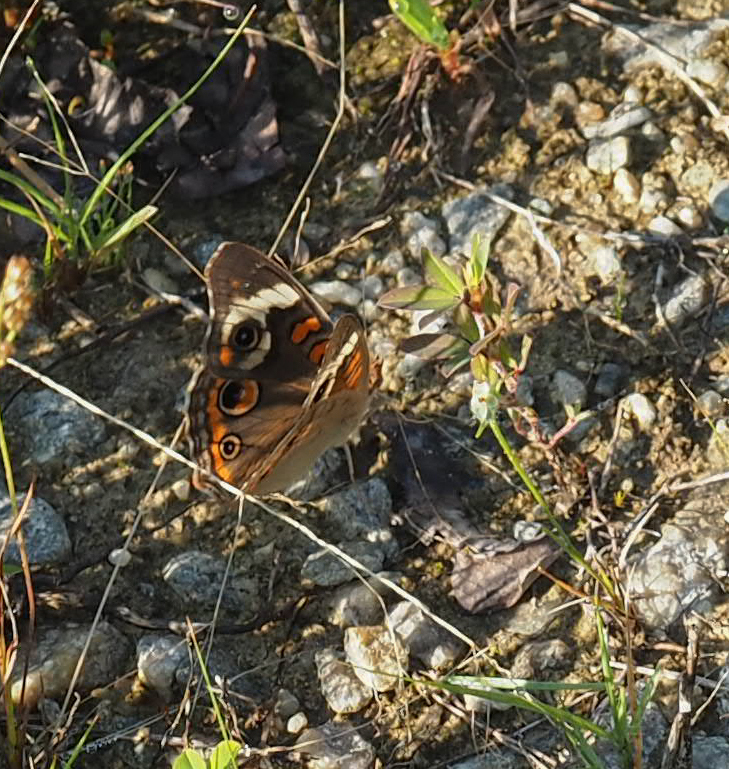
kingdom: Animalia
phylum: Arthropoda
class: Insecta
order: Lepidoptera
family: Nymphalidae
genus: Junonia
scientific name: Junonia coenia
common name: Common buckeye
